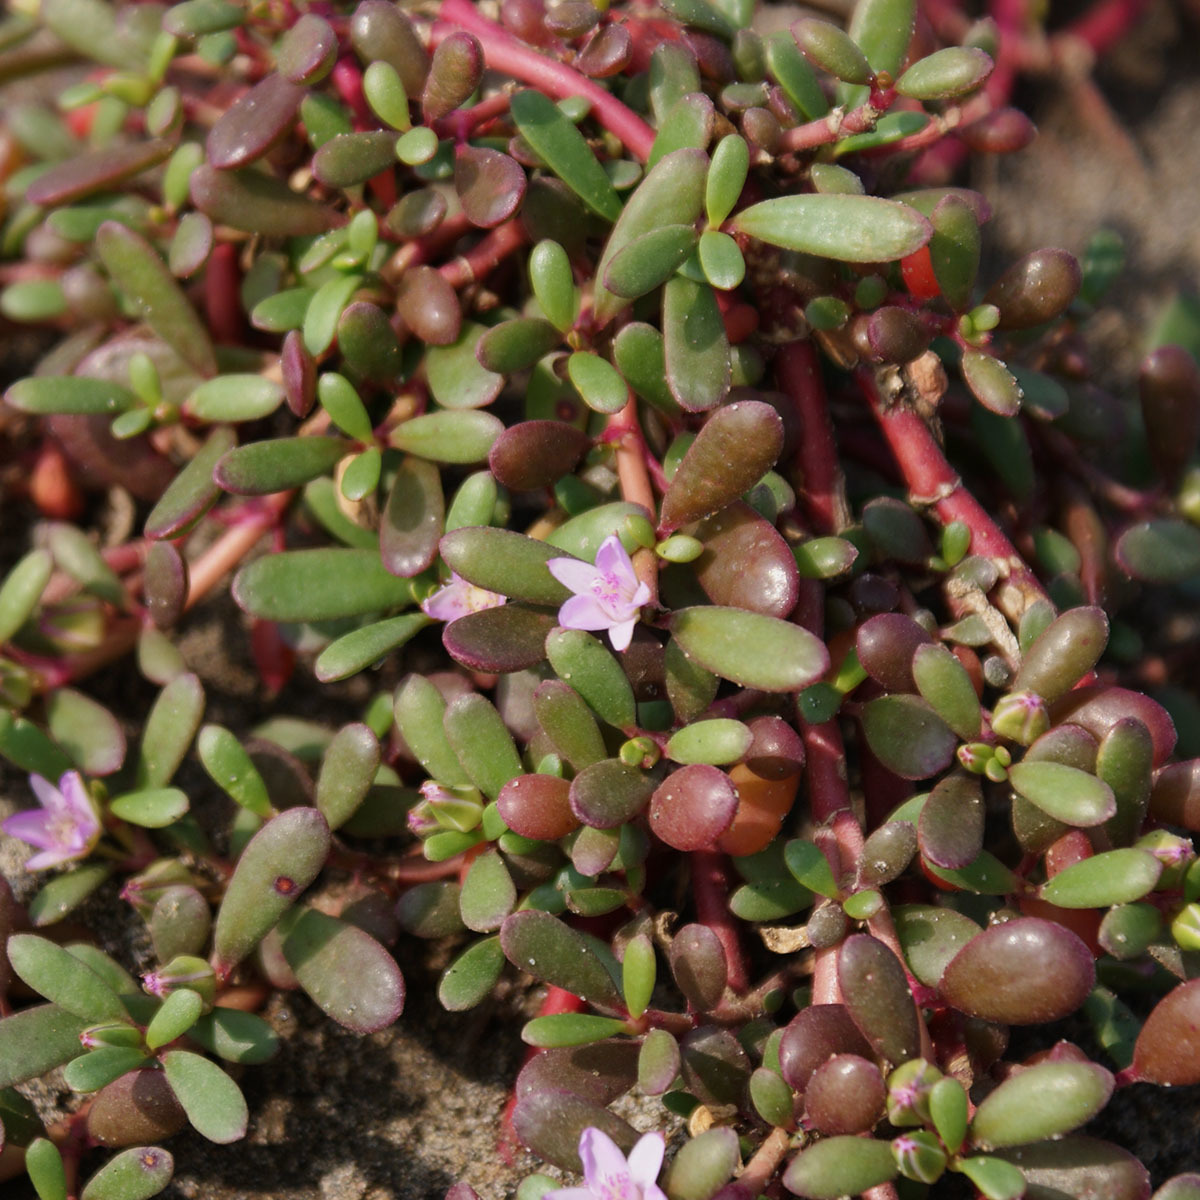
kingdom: Plantae
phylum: Tracheophyta
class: Magnoliopsida
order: Caryophyllales
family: Aizoaceae
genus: Sesuvium
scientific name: Sesuvium portulacastrum
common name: Sea-purslane
